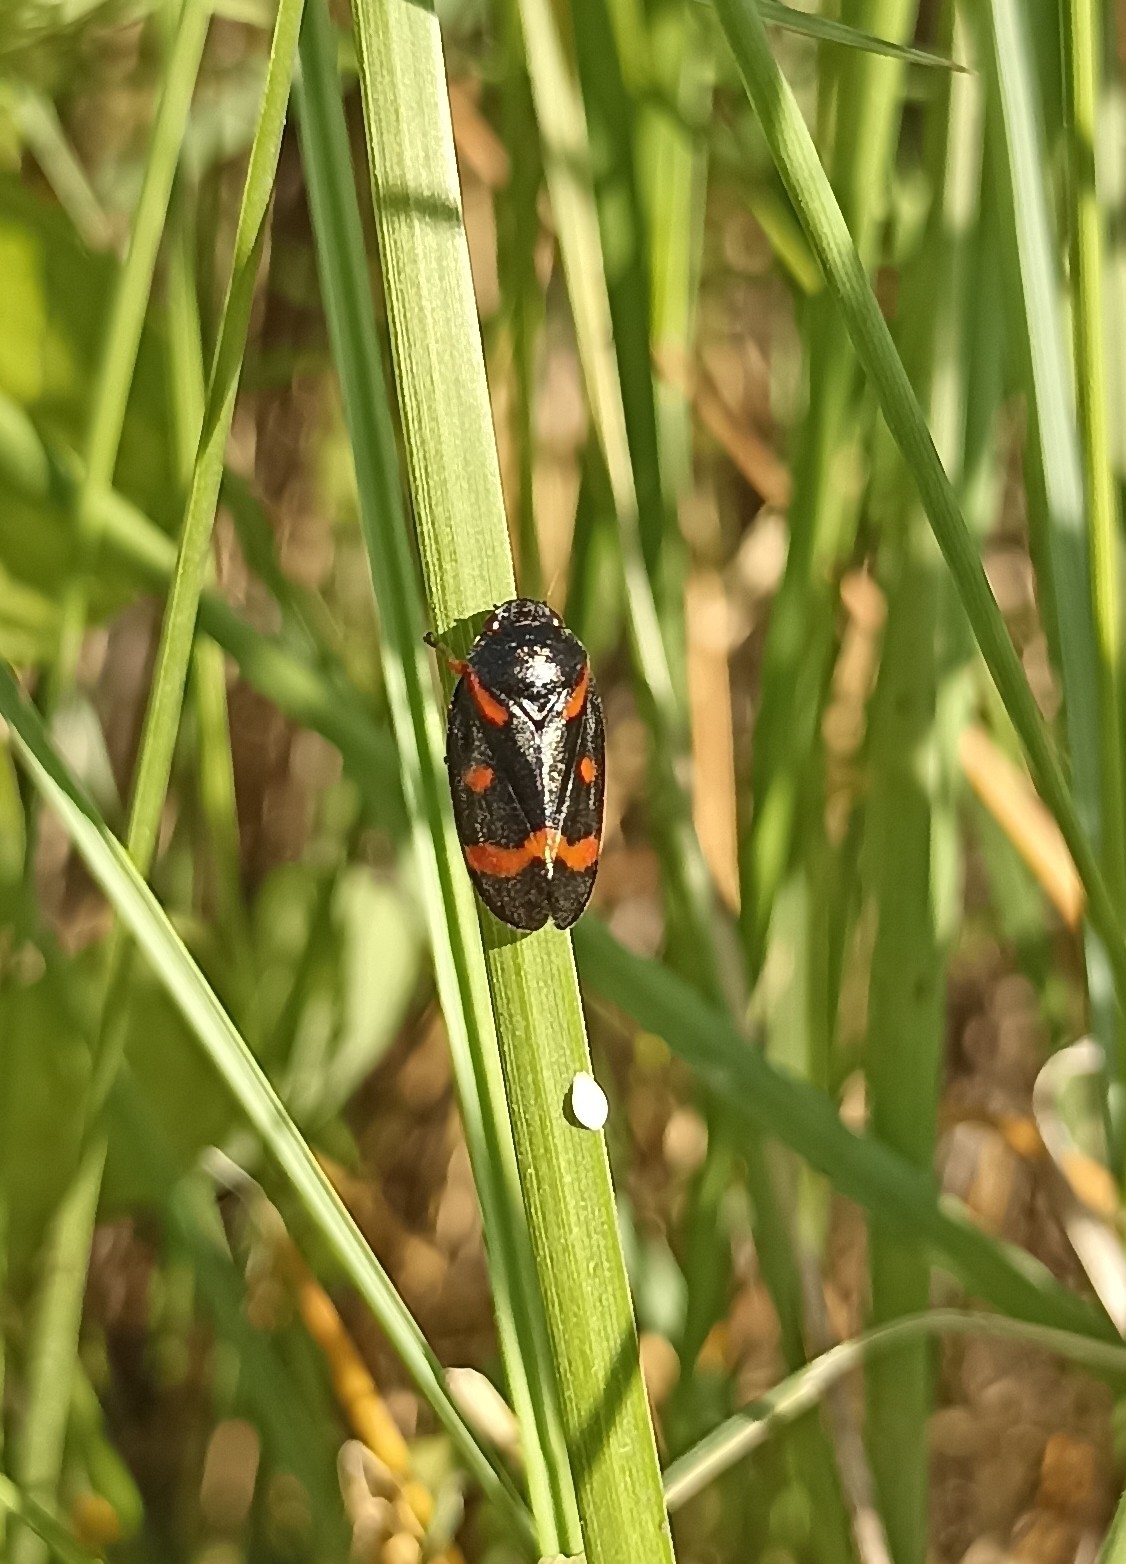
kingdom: Animalia
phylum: Arthropoda
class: Insecta
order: Hemiptera
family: Cercopidae
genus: Cercopis
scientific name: Cercopis intermedia
